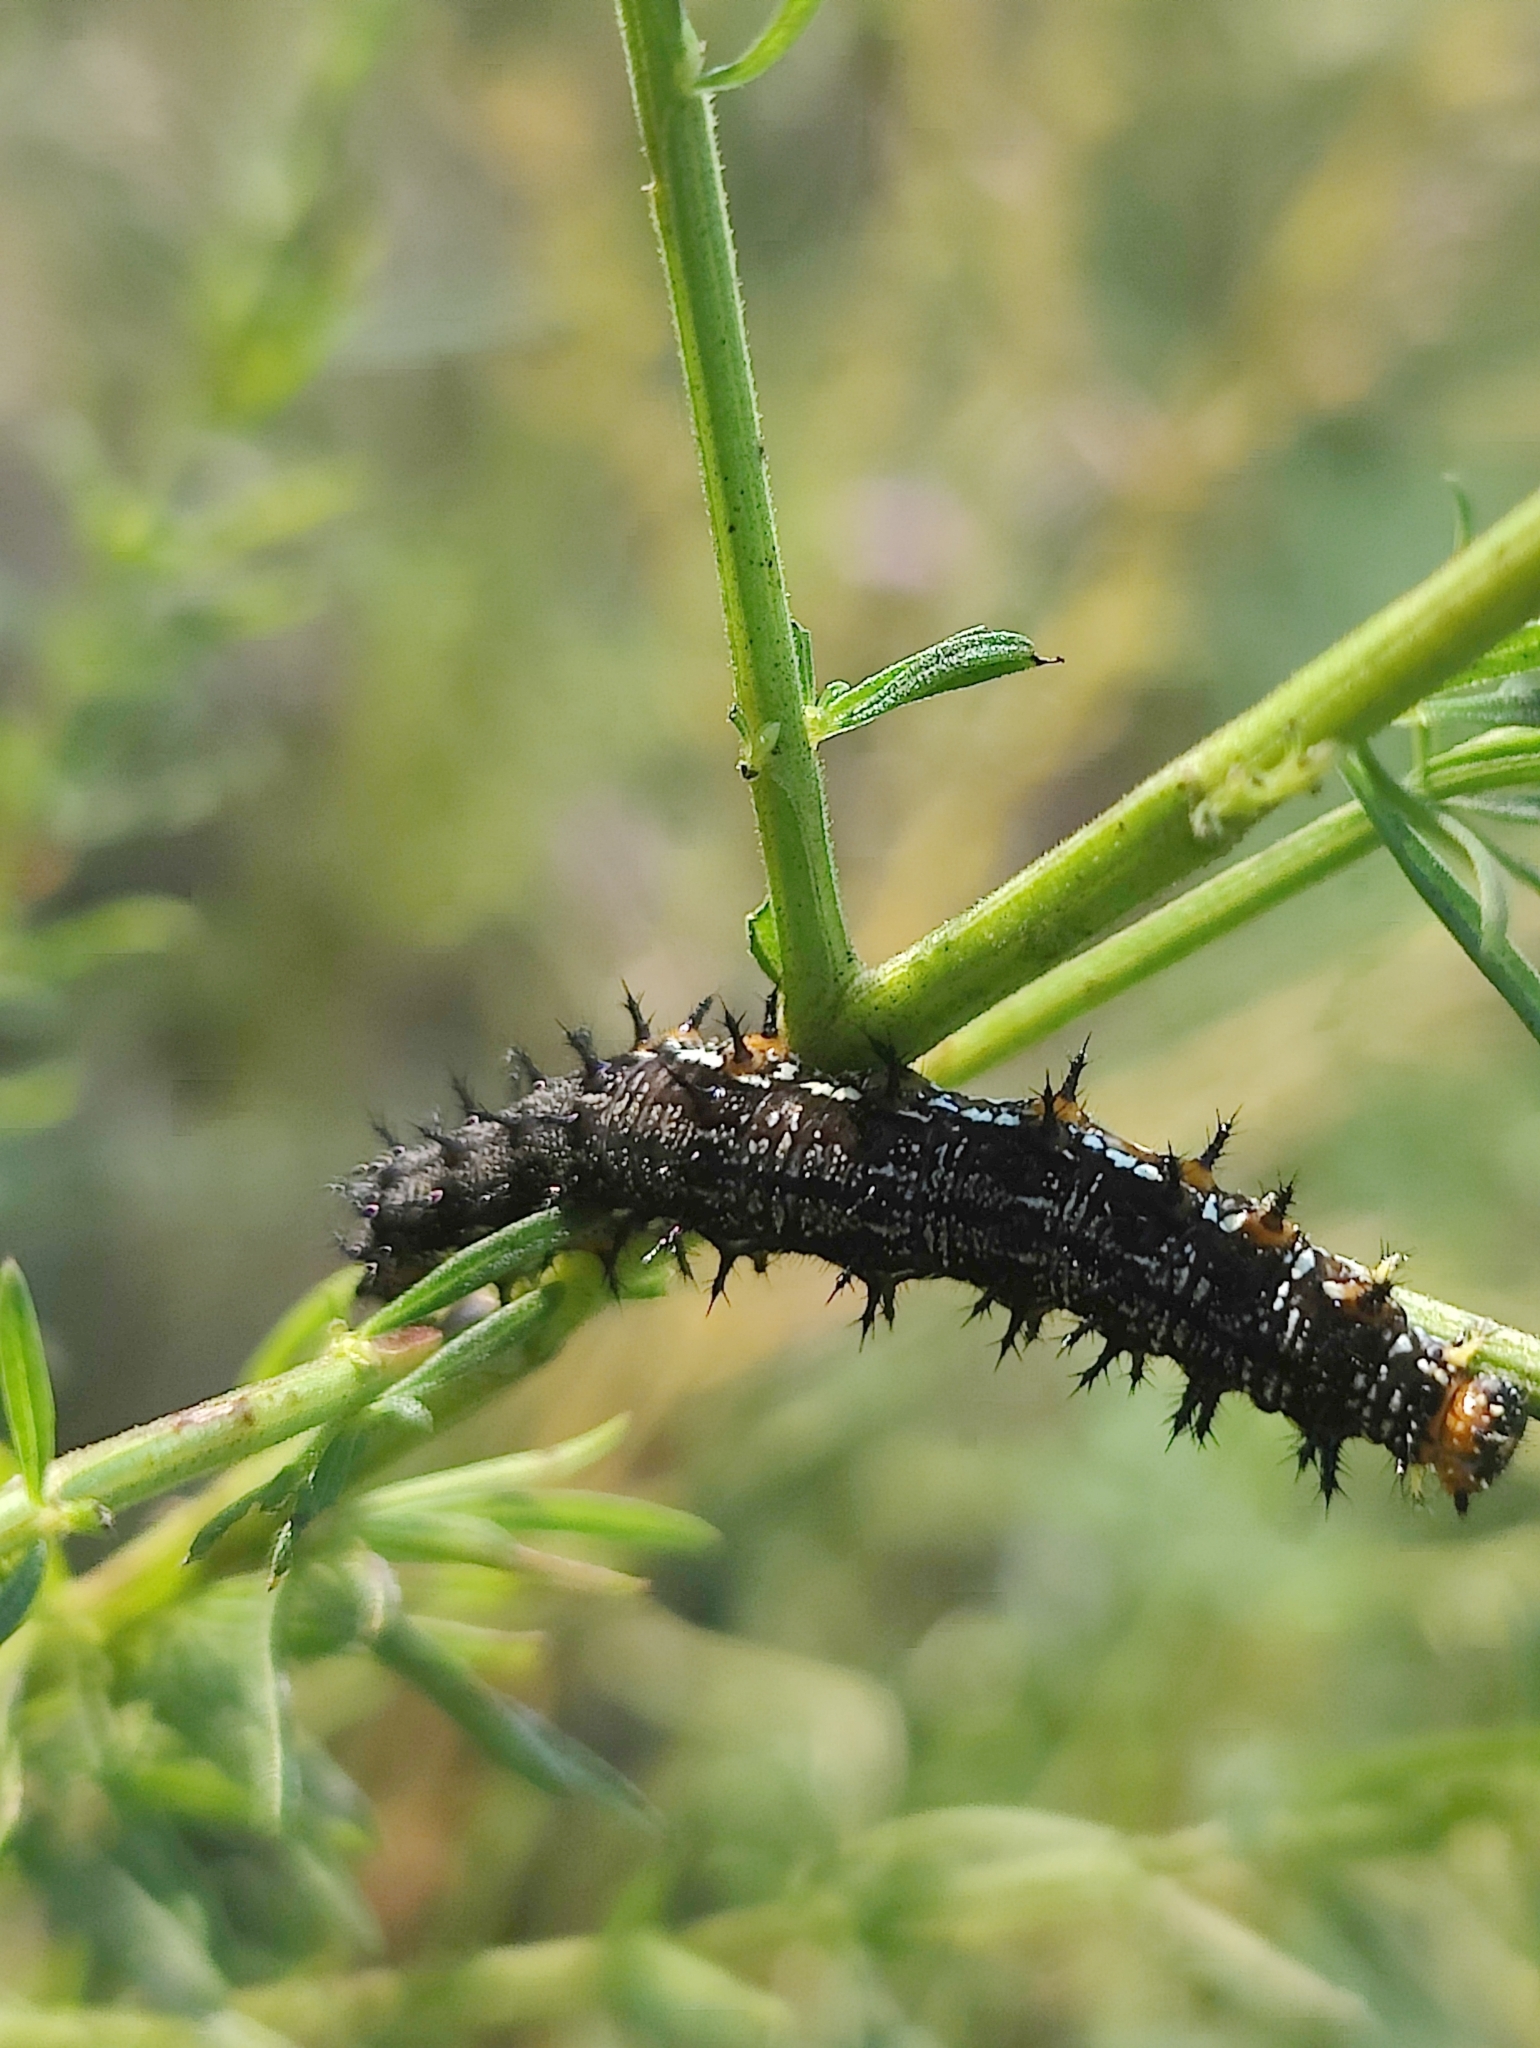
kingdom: Animalia
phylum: Arthropoda
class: Insecta
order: Lepidoptera
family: Nymphalidae
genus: Junonia
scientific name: Junonia coenia
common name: Common buckeye
